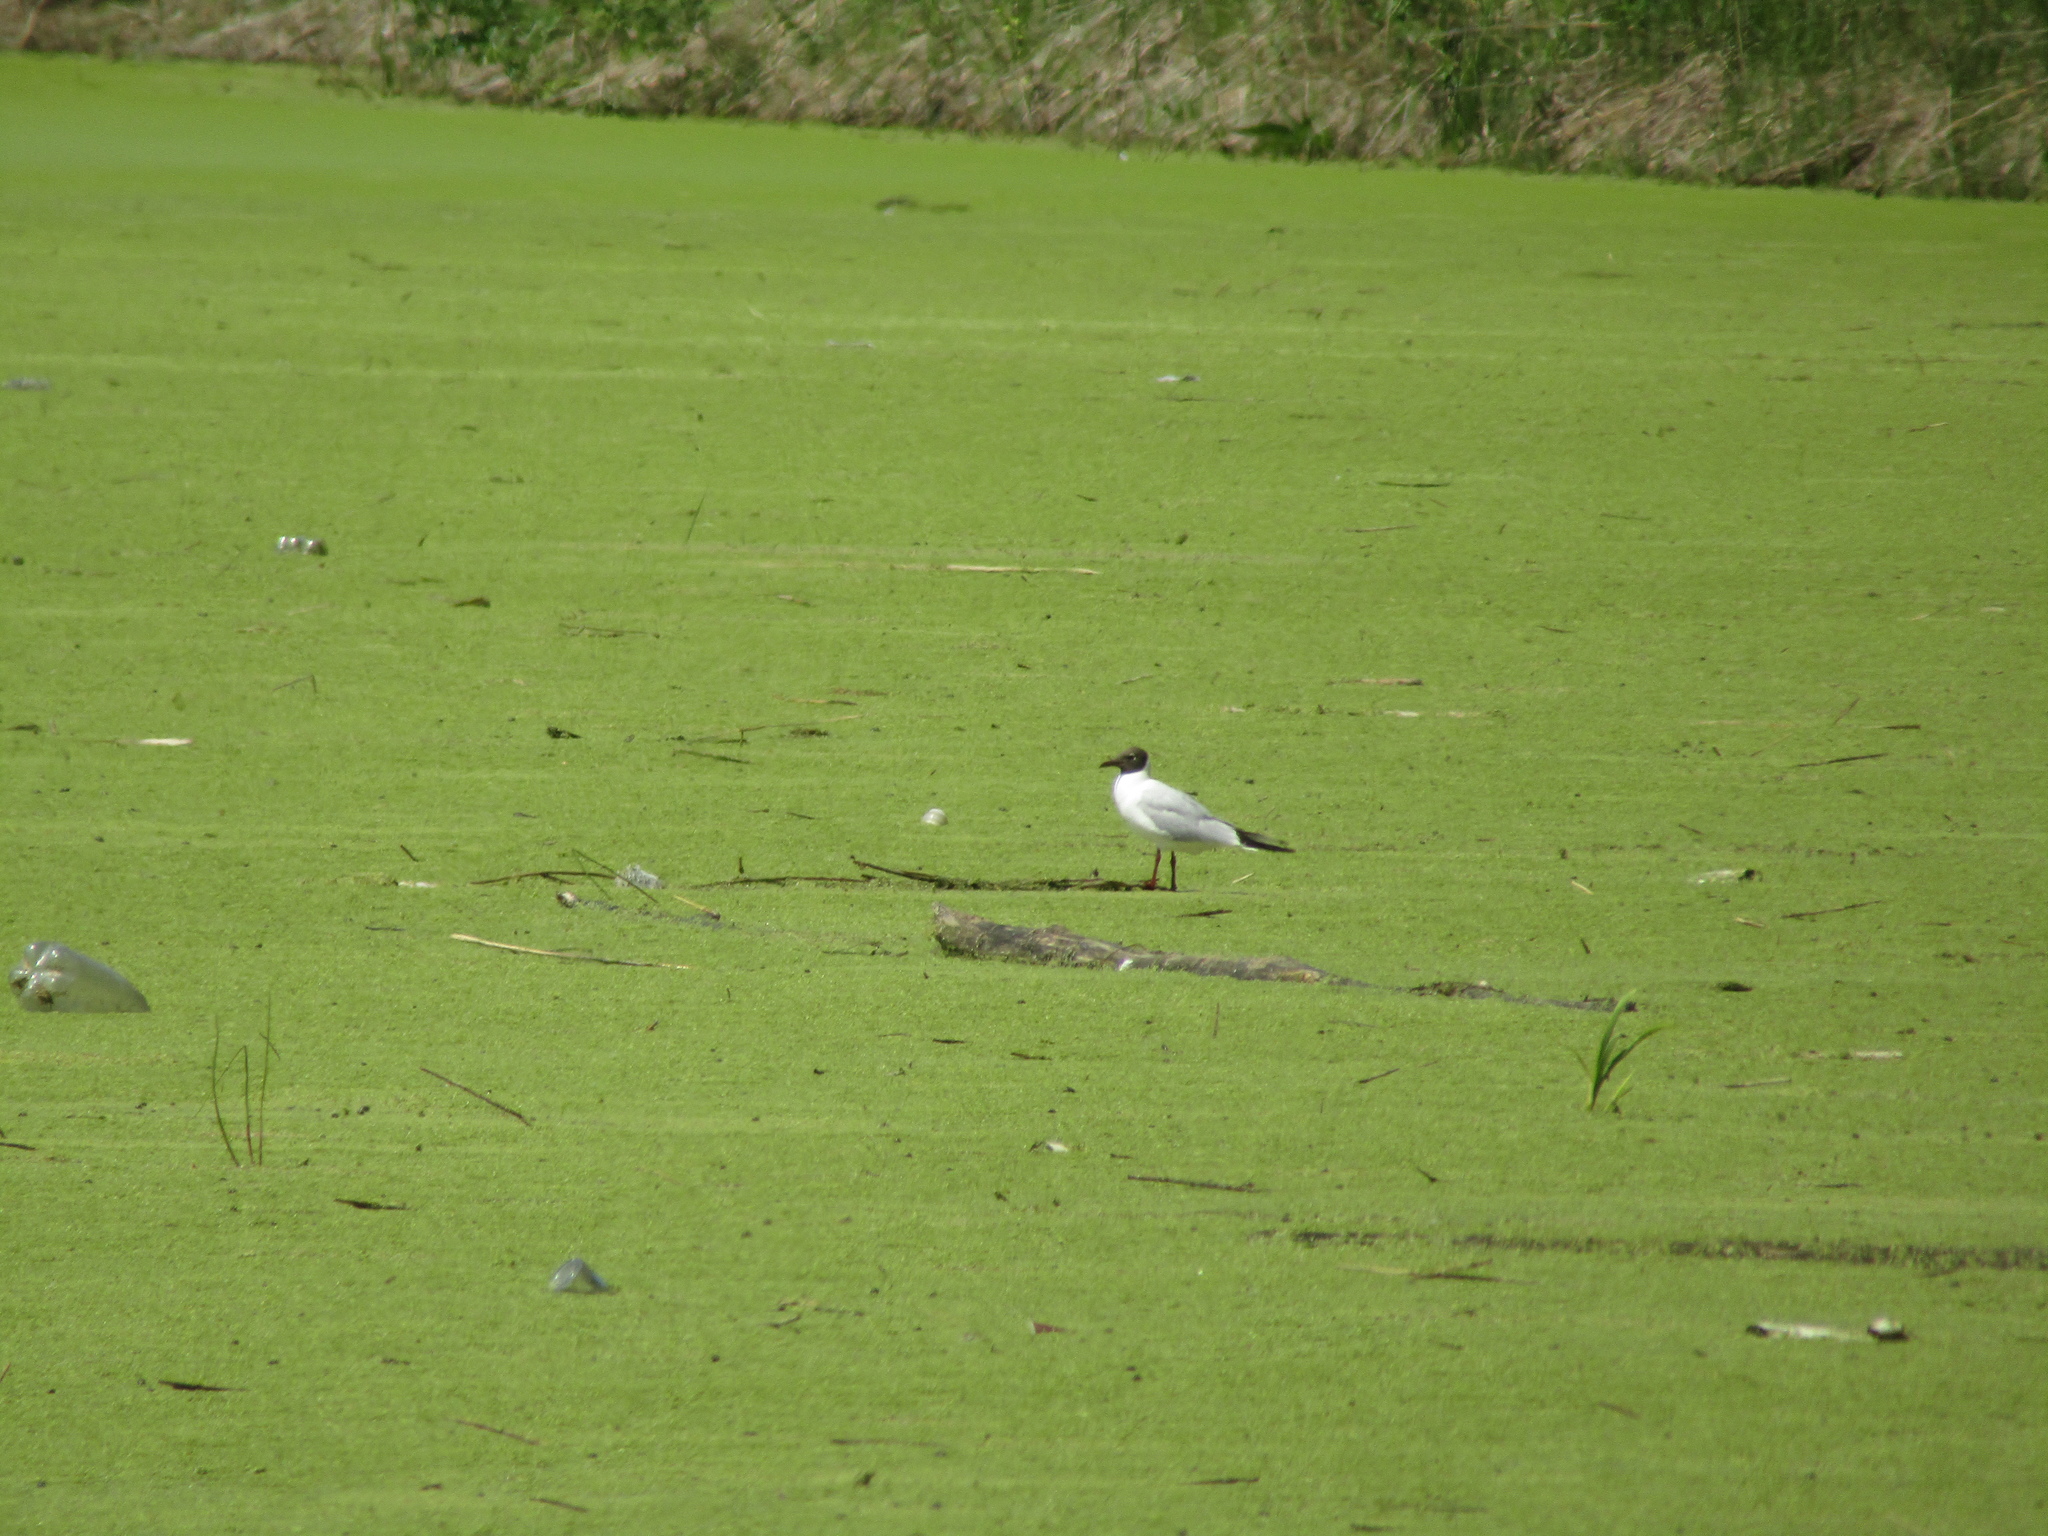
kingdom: Animalia
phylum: Chordata
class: Aves
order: Charadriiformes
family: Laridae
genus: Chroicocephalus
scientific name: Chroicocephalus ridibundus
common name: Black-headed gull
